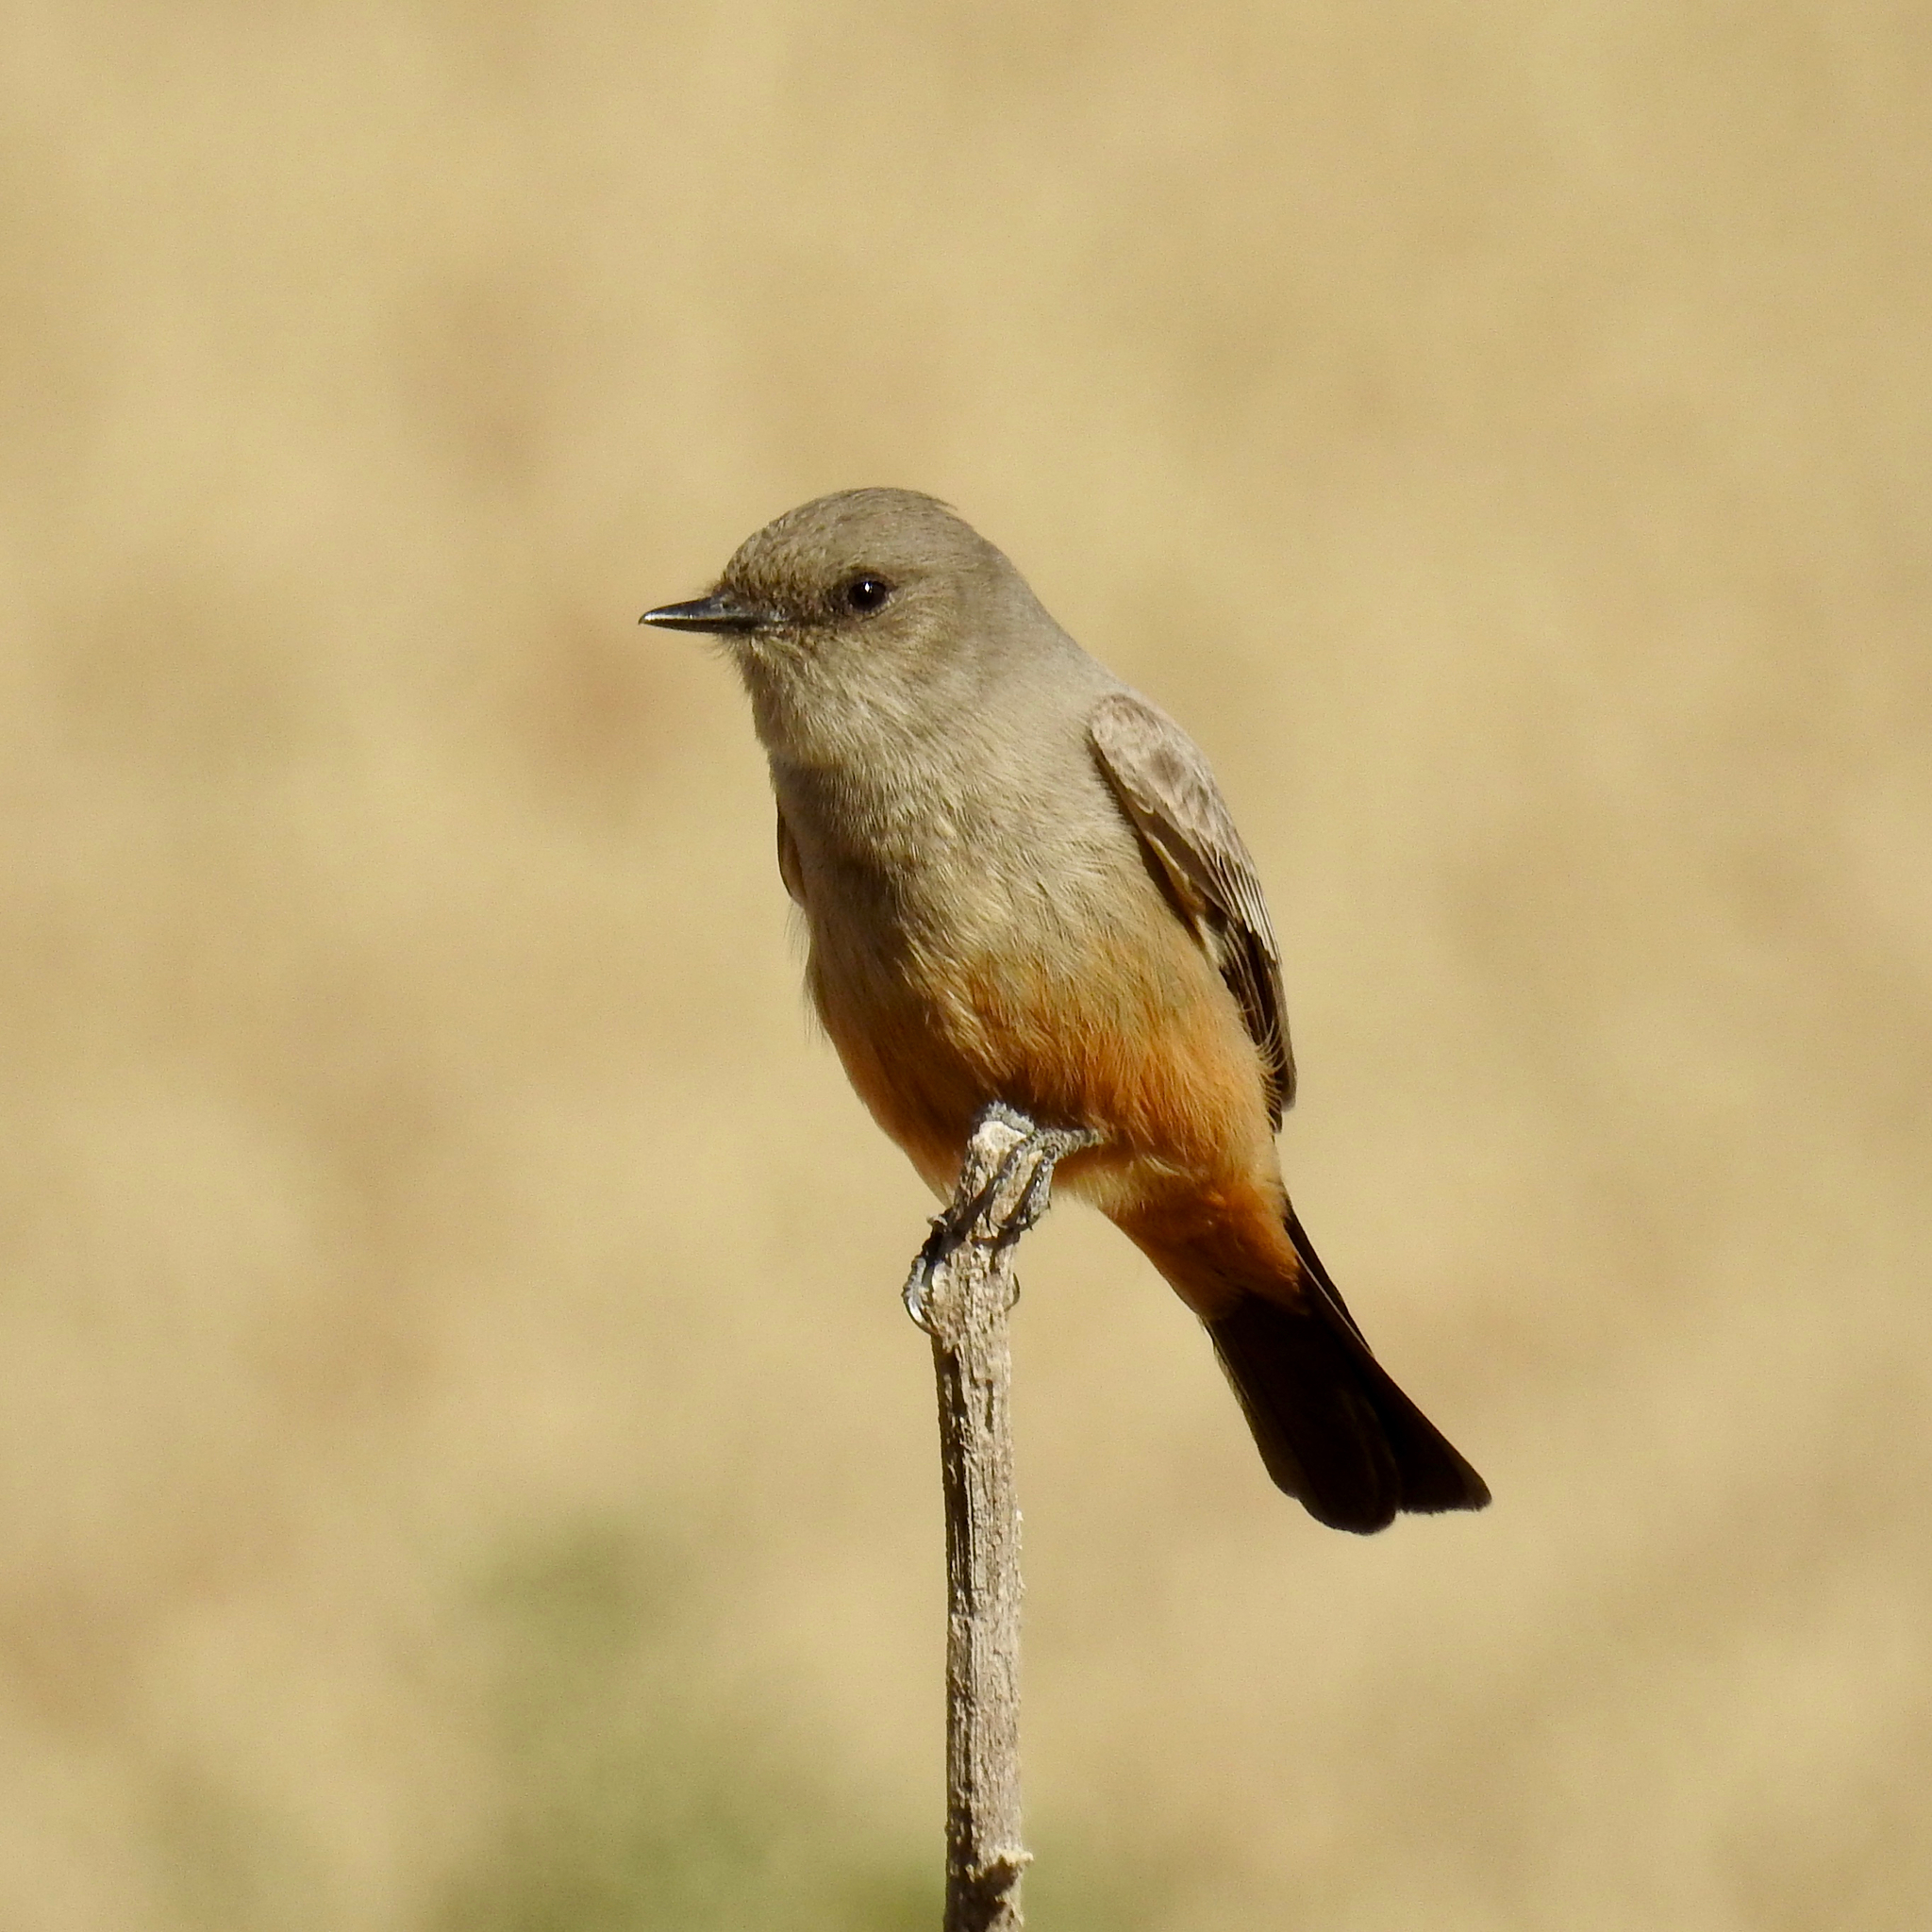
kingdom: Animalia
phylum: Chordata
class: Aves
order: Passeriformes
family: Tyrannidae
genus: Sayornis
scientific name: Sayornis saya
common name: Say's phoebe
